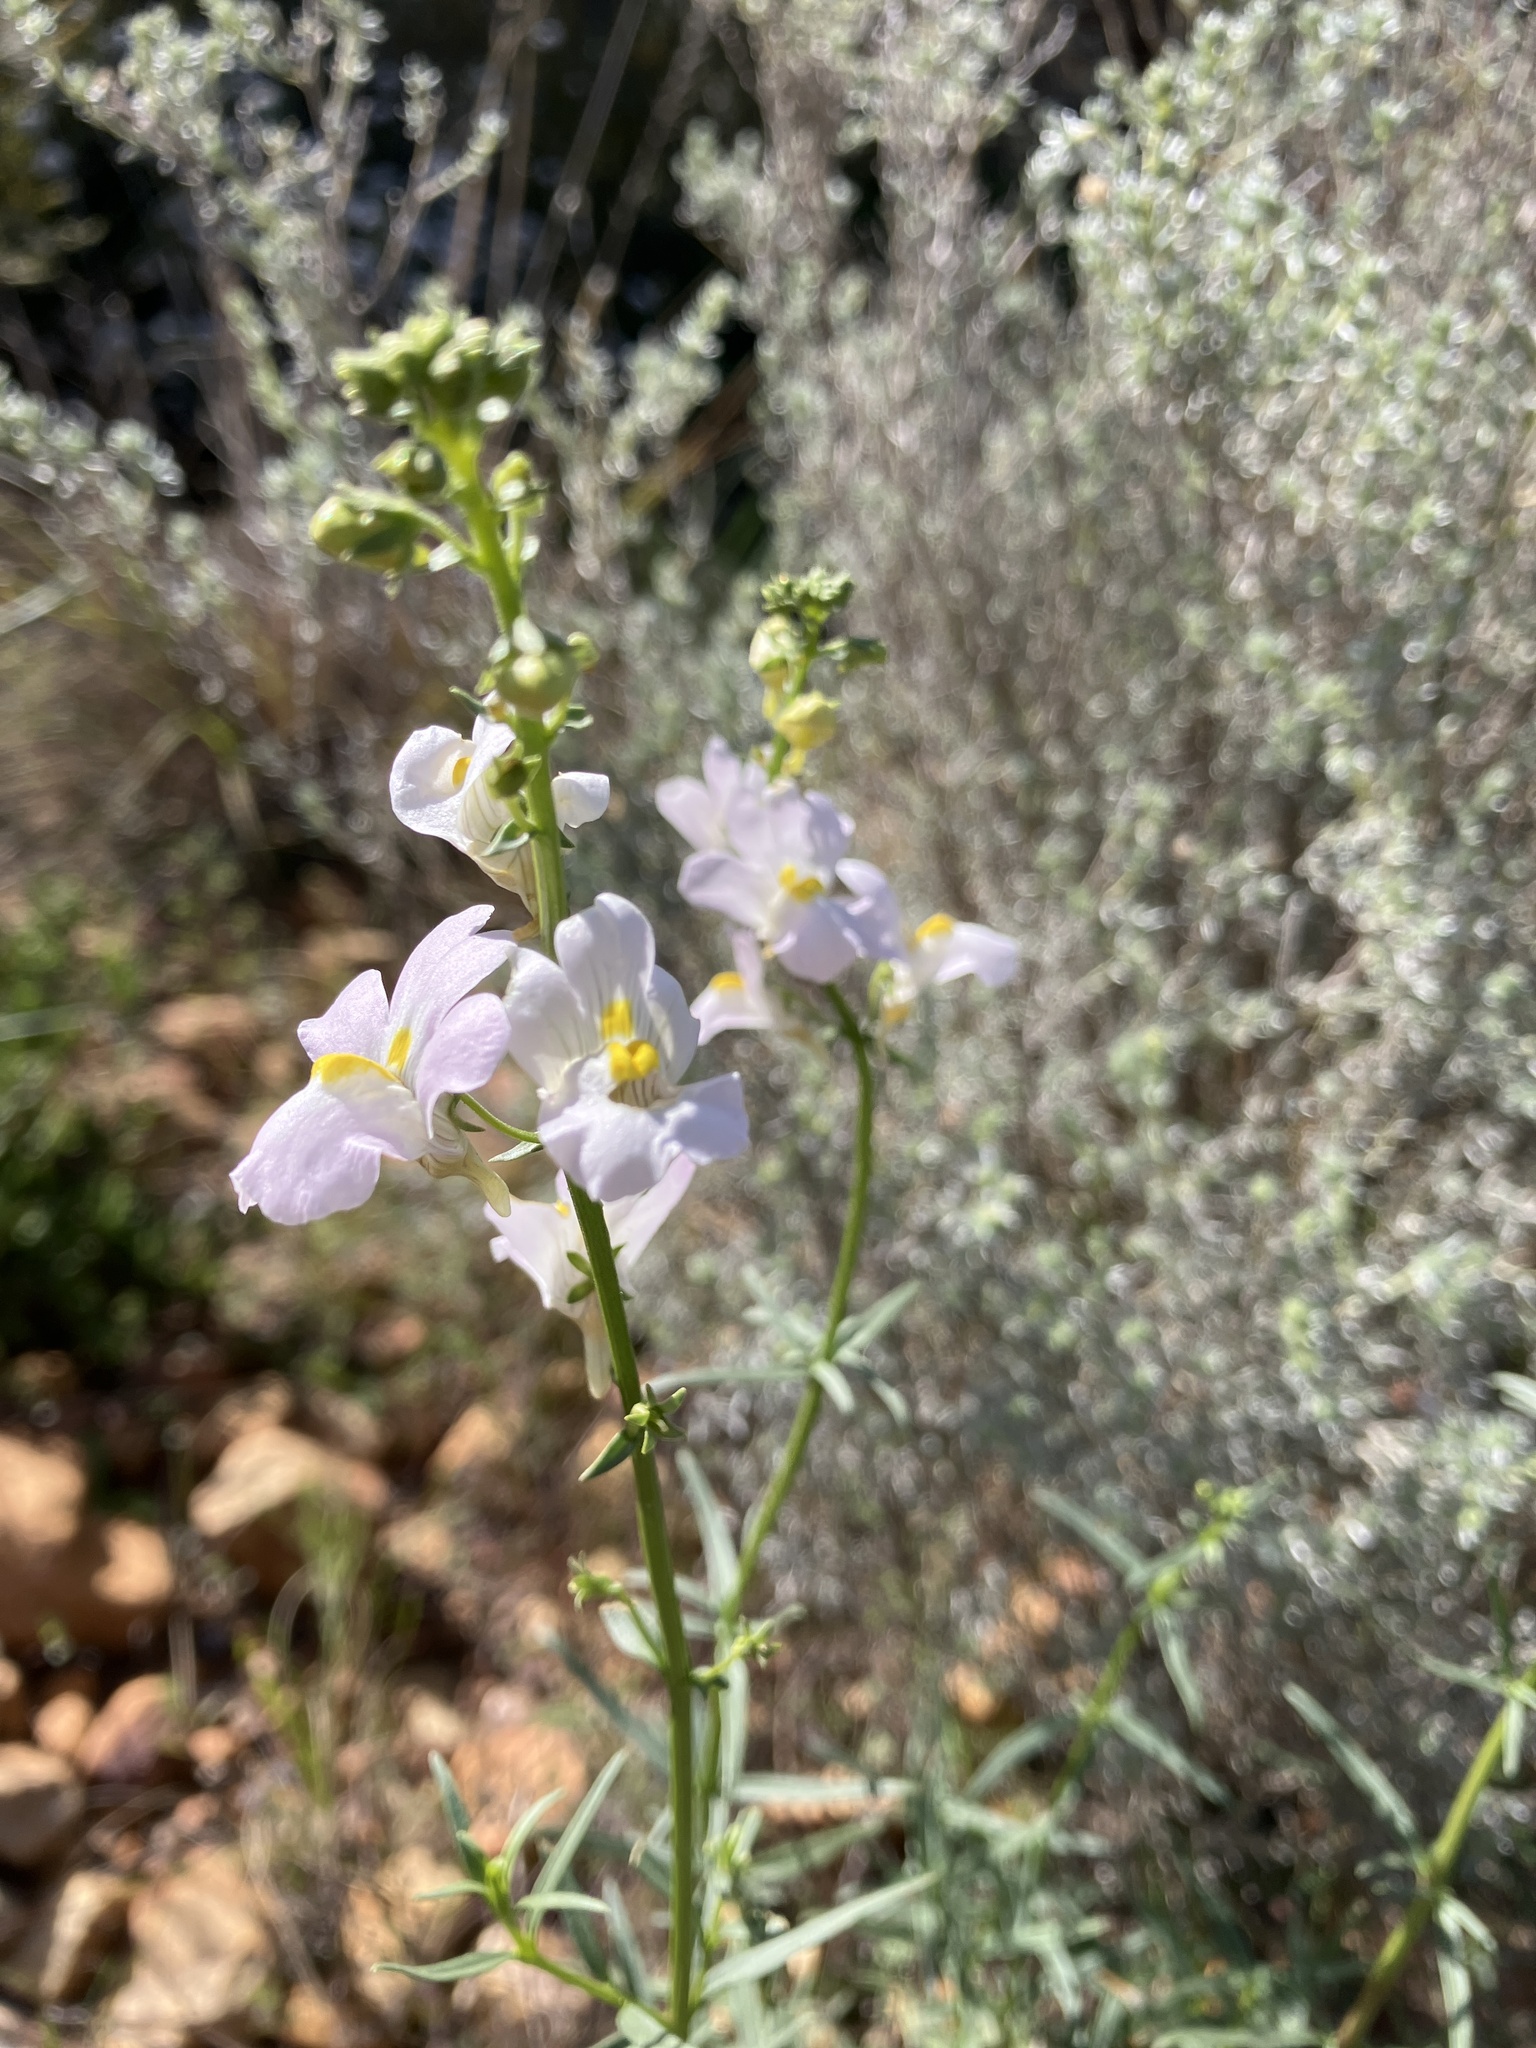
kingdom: Plantae
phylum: Tracheophyta
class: Magnoliopsida
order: Lamiales
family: Scrophulariaceae
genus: Nemesia
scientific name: Nemesia fruticans
